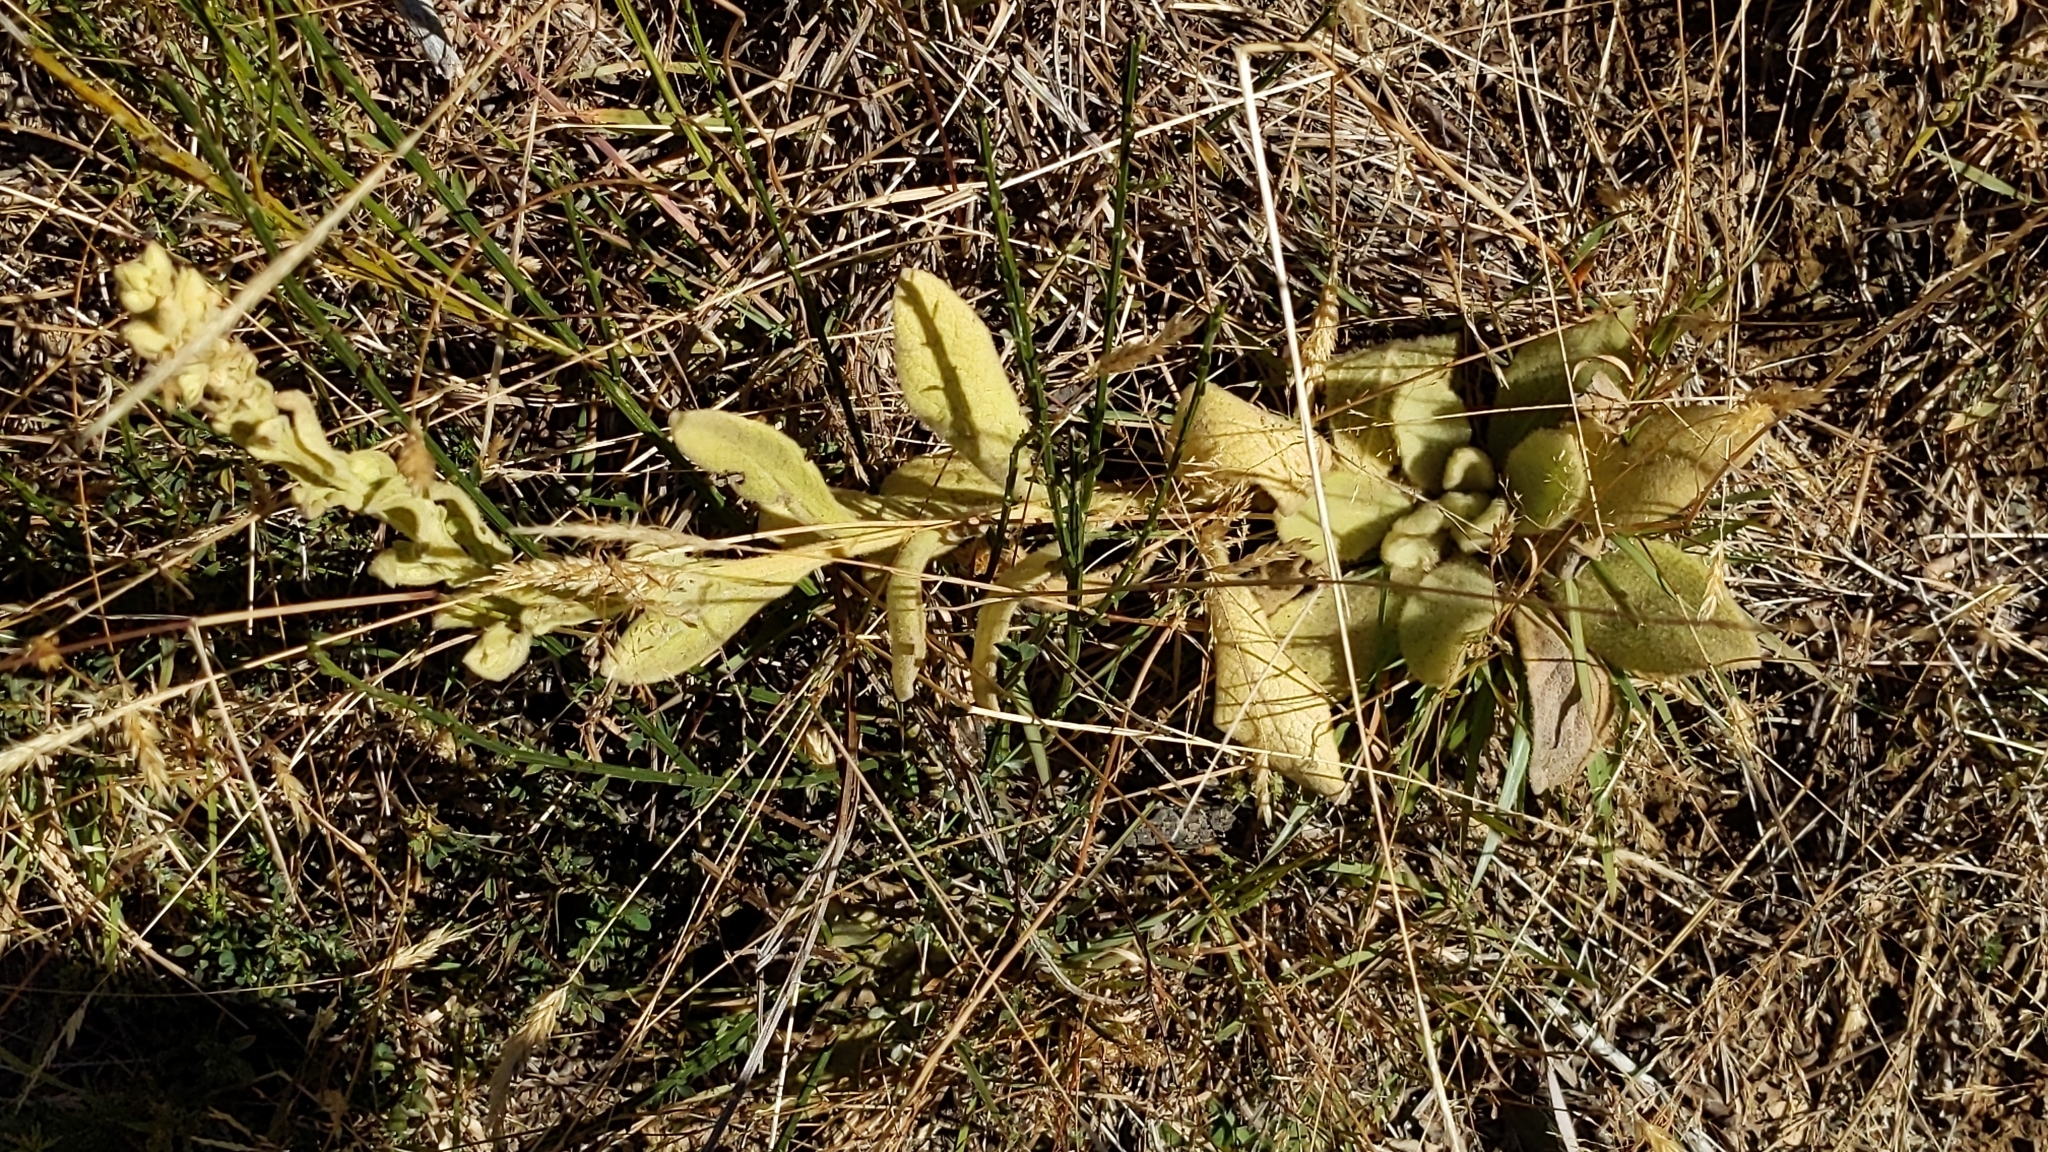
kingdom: Plantae
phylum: Tracheophyta
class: Magnoliopsida
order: Lamiales
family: Scrophulariaceae
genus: Verbascum
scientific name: Verbascum thapsus
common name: Common mullein
